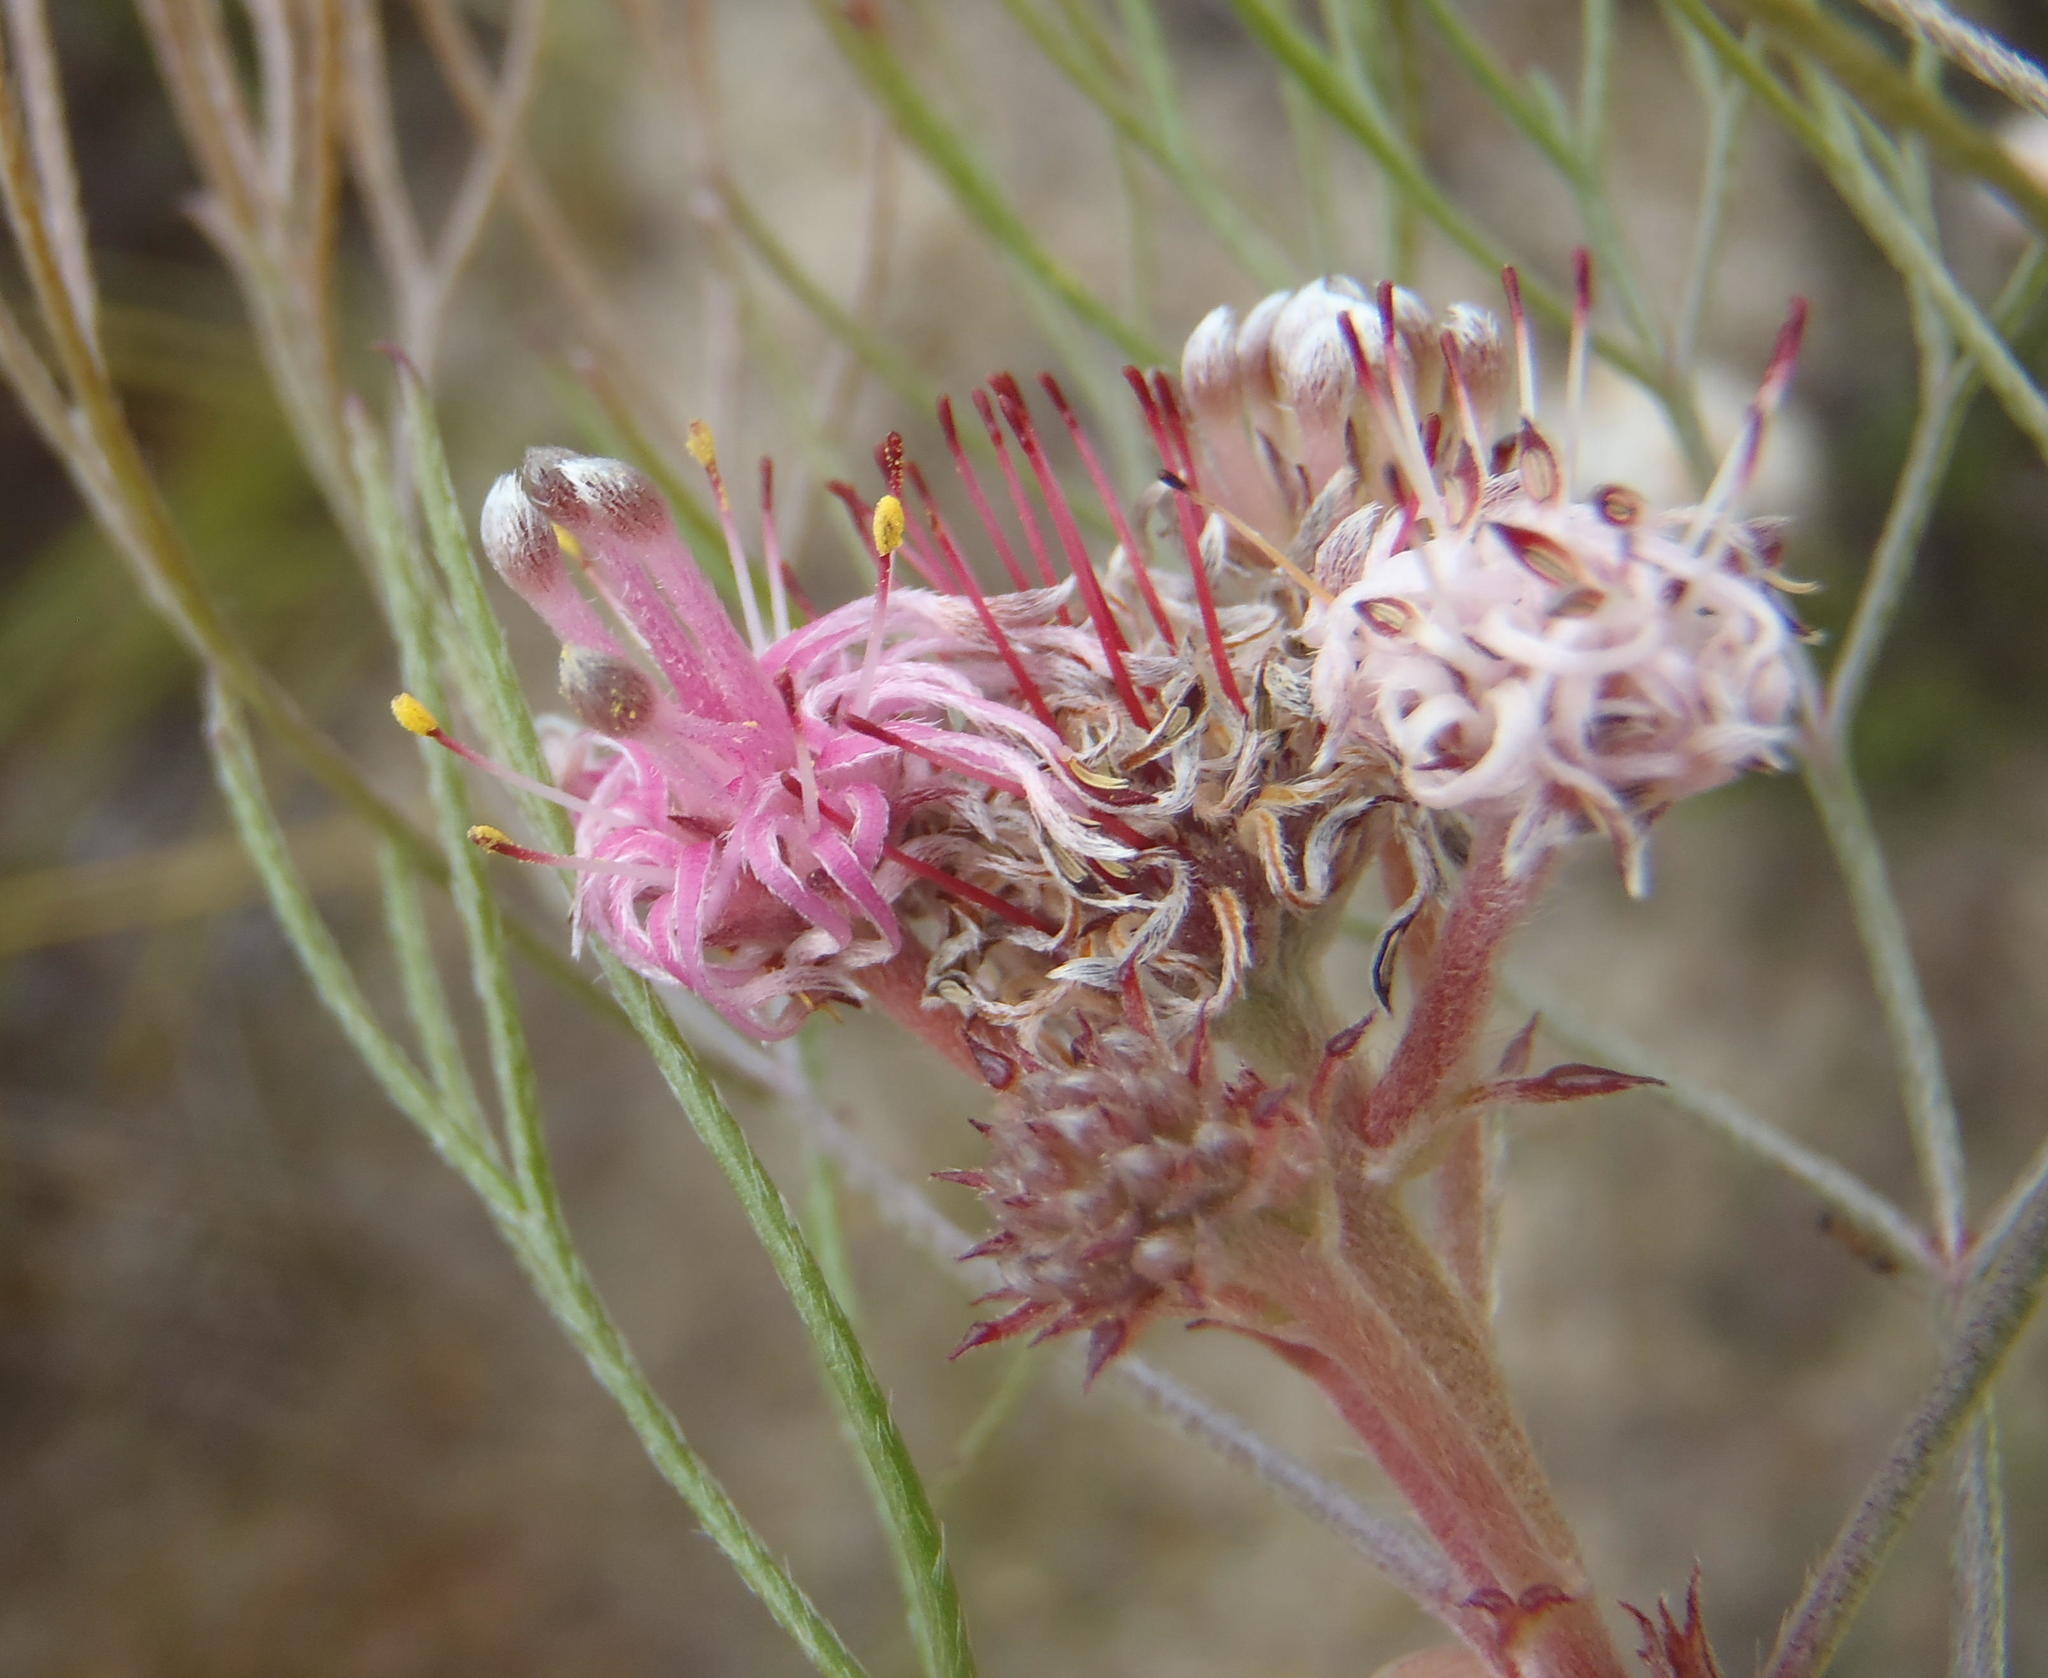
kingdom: Plantae
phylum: Tracheophyta
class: Magnoliopsida
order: Proteales
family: Proteaceae
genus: Serruria
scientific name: Serruria fasciflora
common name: Common pin spiderhead
